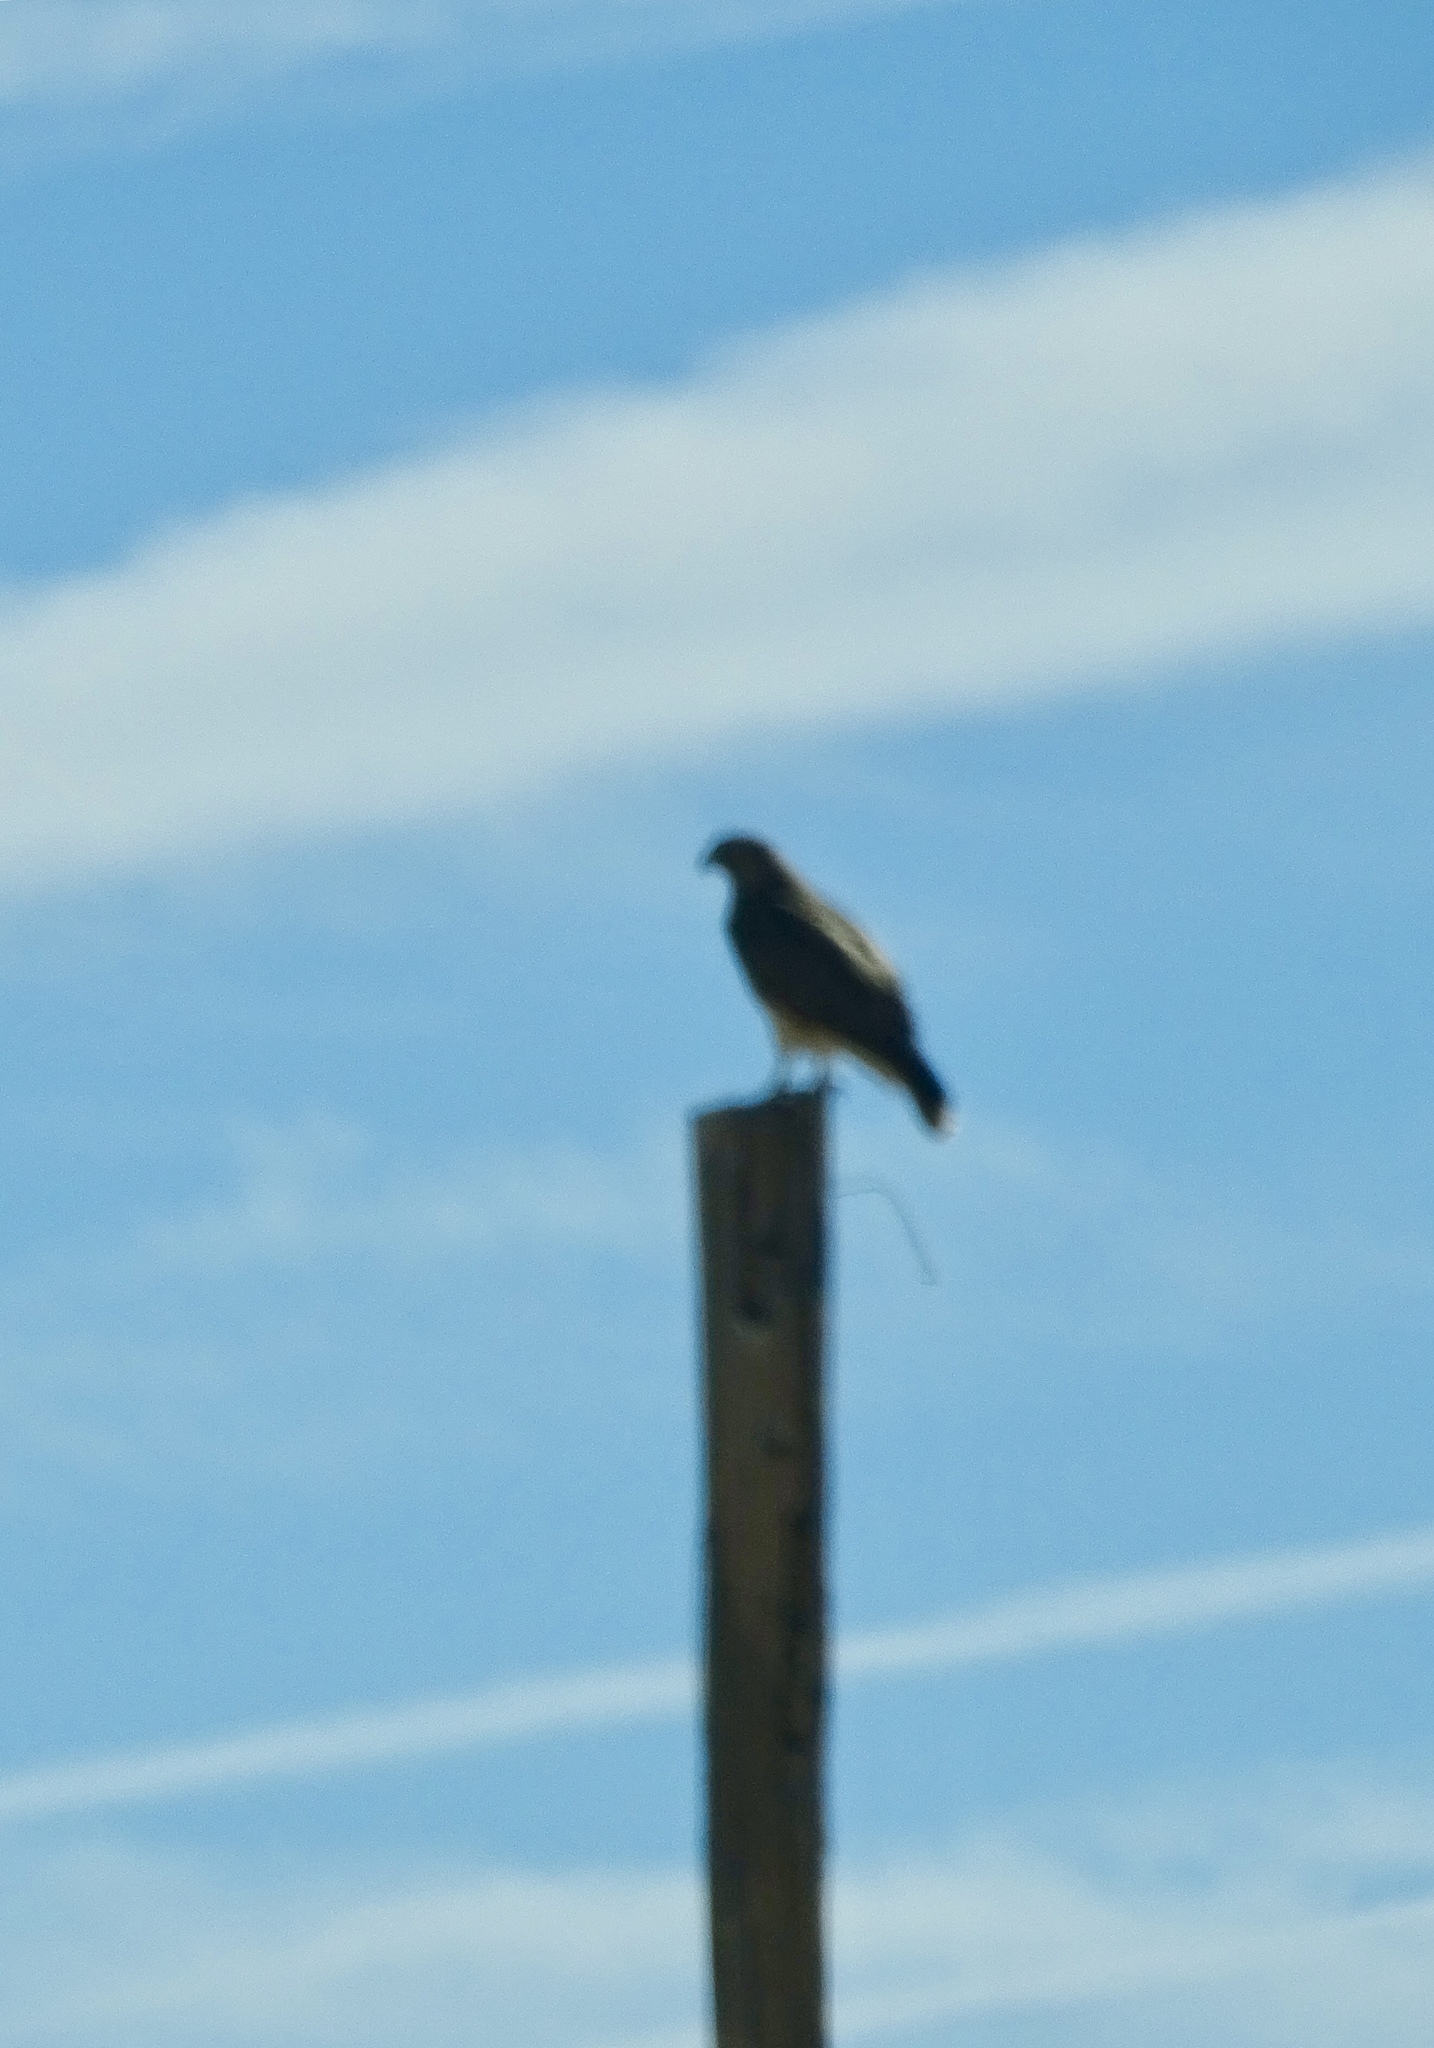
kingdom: Animalia
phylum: Chordata
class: Aves
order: Accipitriformes
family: Accipitridae
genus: Buteo
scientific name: Buteo jamaicensis
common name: Red-tailed hawk
